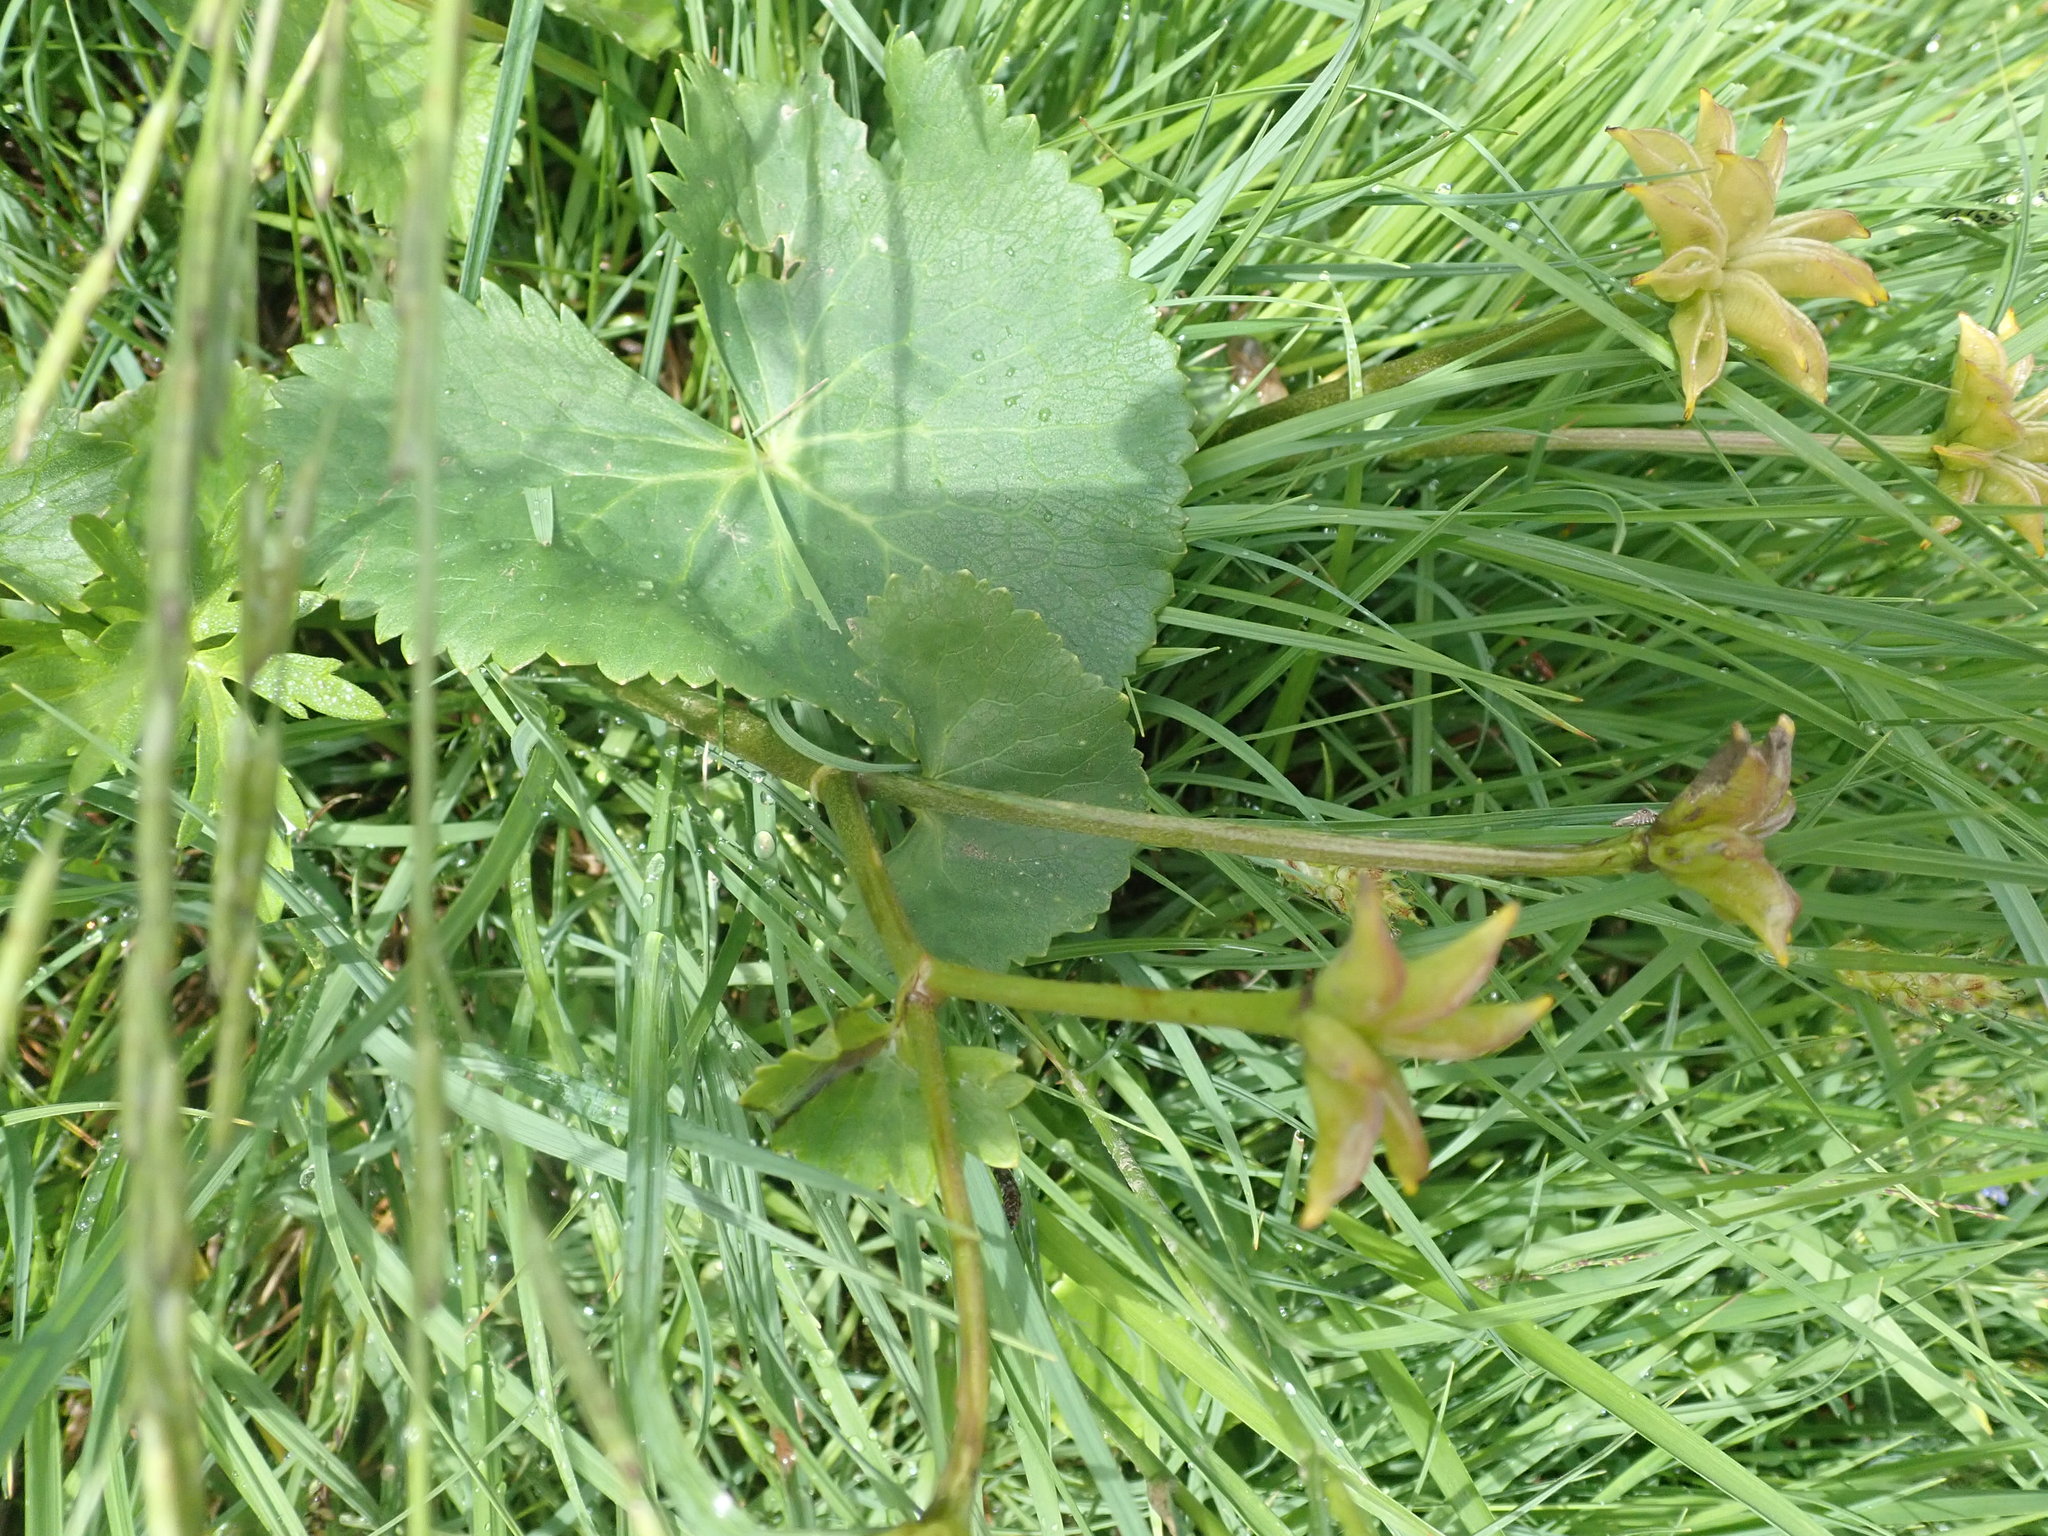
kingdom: Plantae
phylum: Tracheophyta
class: Magnoliopsida
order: Ranunculales
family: Ranunculaceae
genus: Caltha
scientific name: Caltha palustris
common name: Marsh marigold
